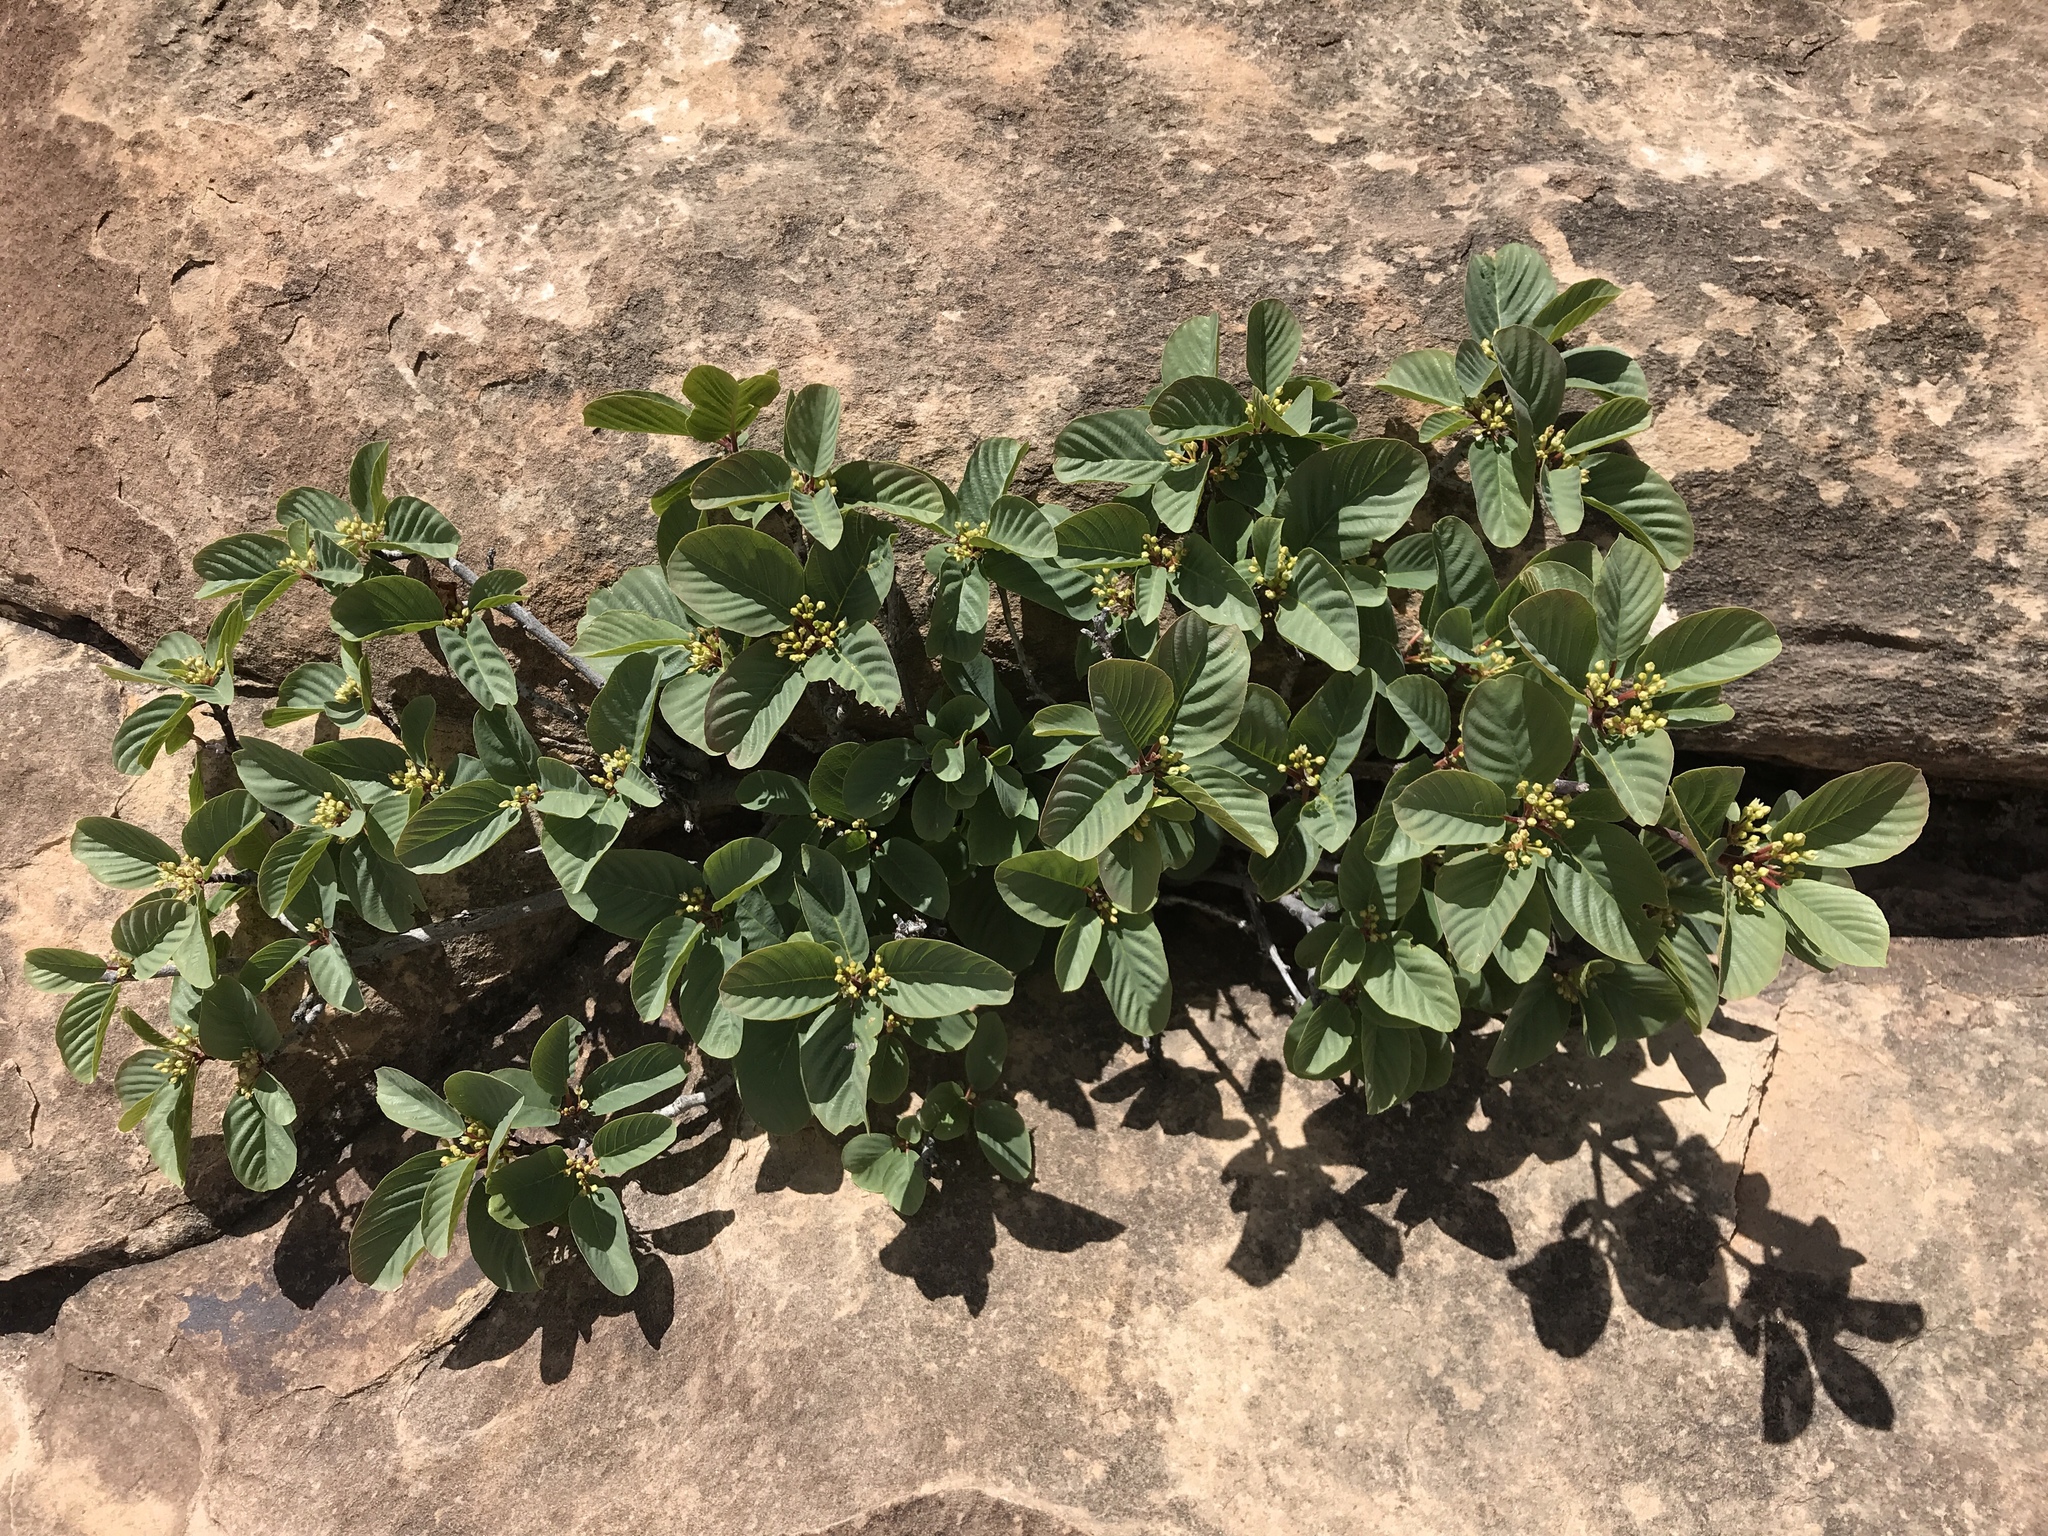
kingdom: Plantae
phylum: Tracheophyta
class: Magnoliopsida
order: Rosales
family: Rhamnaceae
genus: Frangula
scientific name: Frangula betulifolia
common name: Birch-leaf buckthorn
